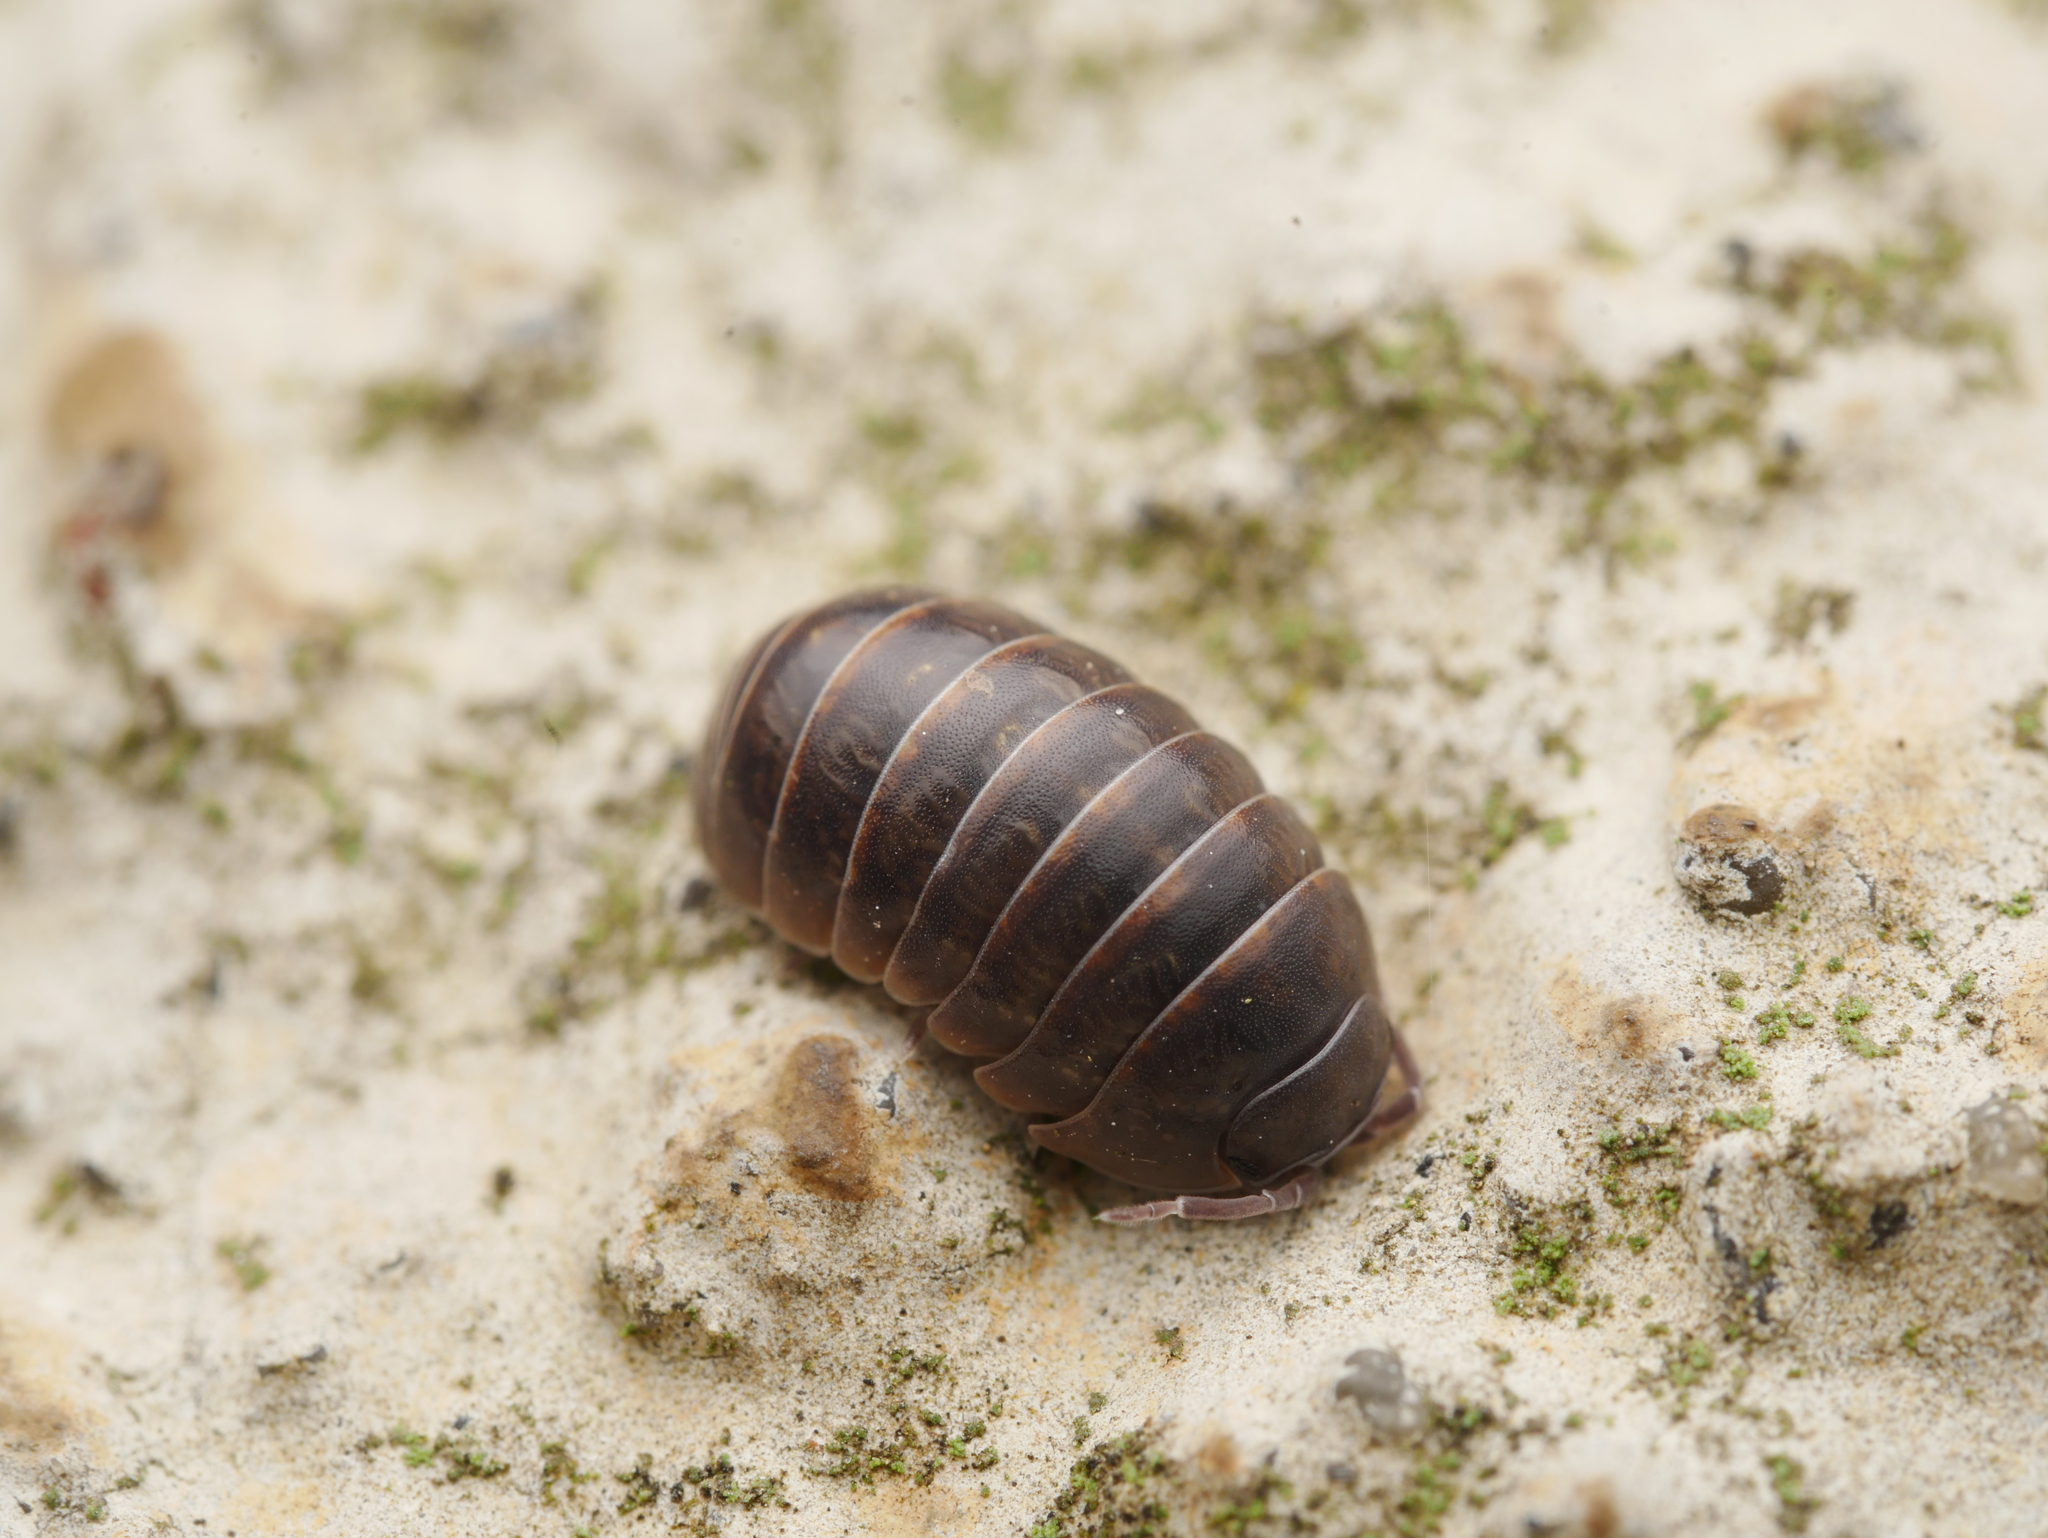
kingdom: Animalia
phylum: Arthropoda
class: Malacostraca
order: Isopoda
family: Armadillidiidae
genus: Armadillidium
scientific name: Armadillidium vulgare
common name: Common pill woodlouse
